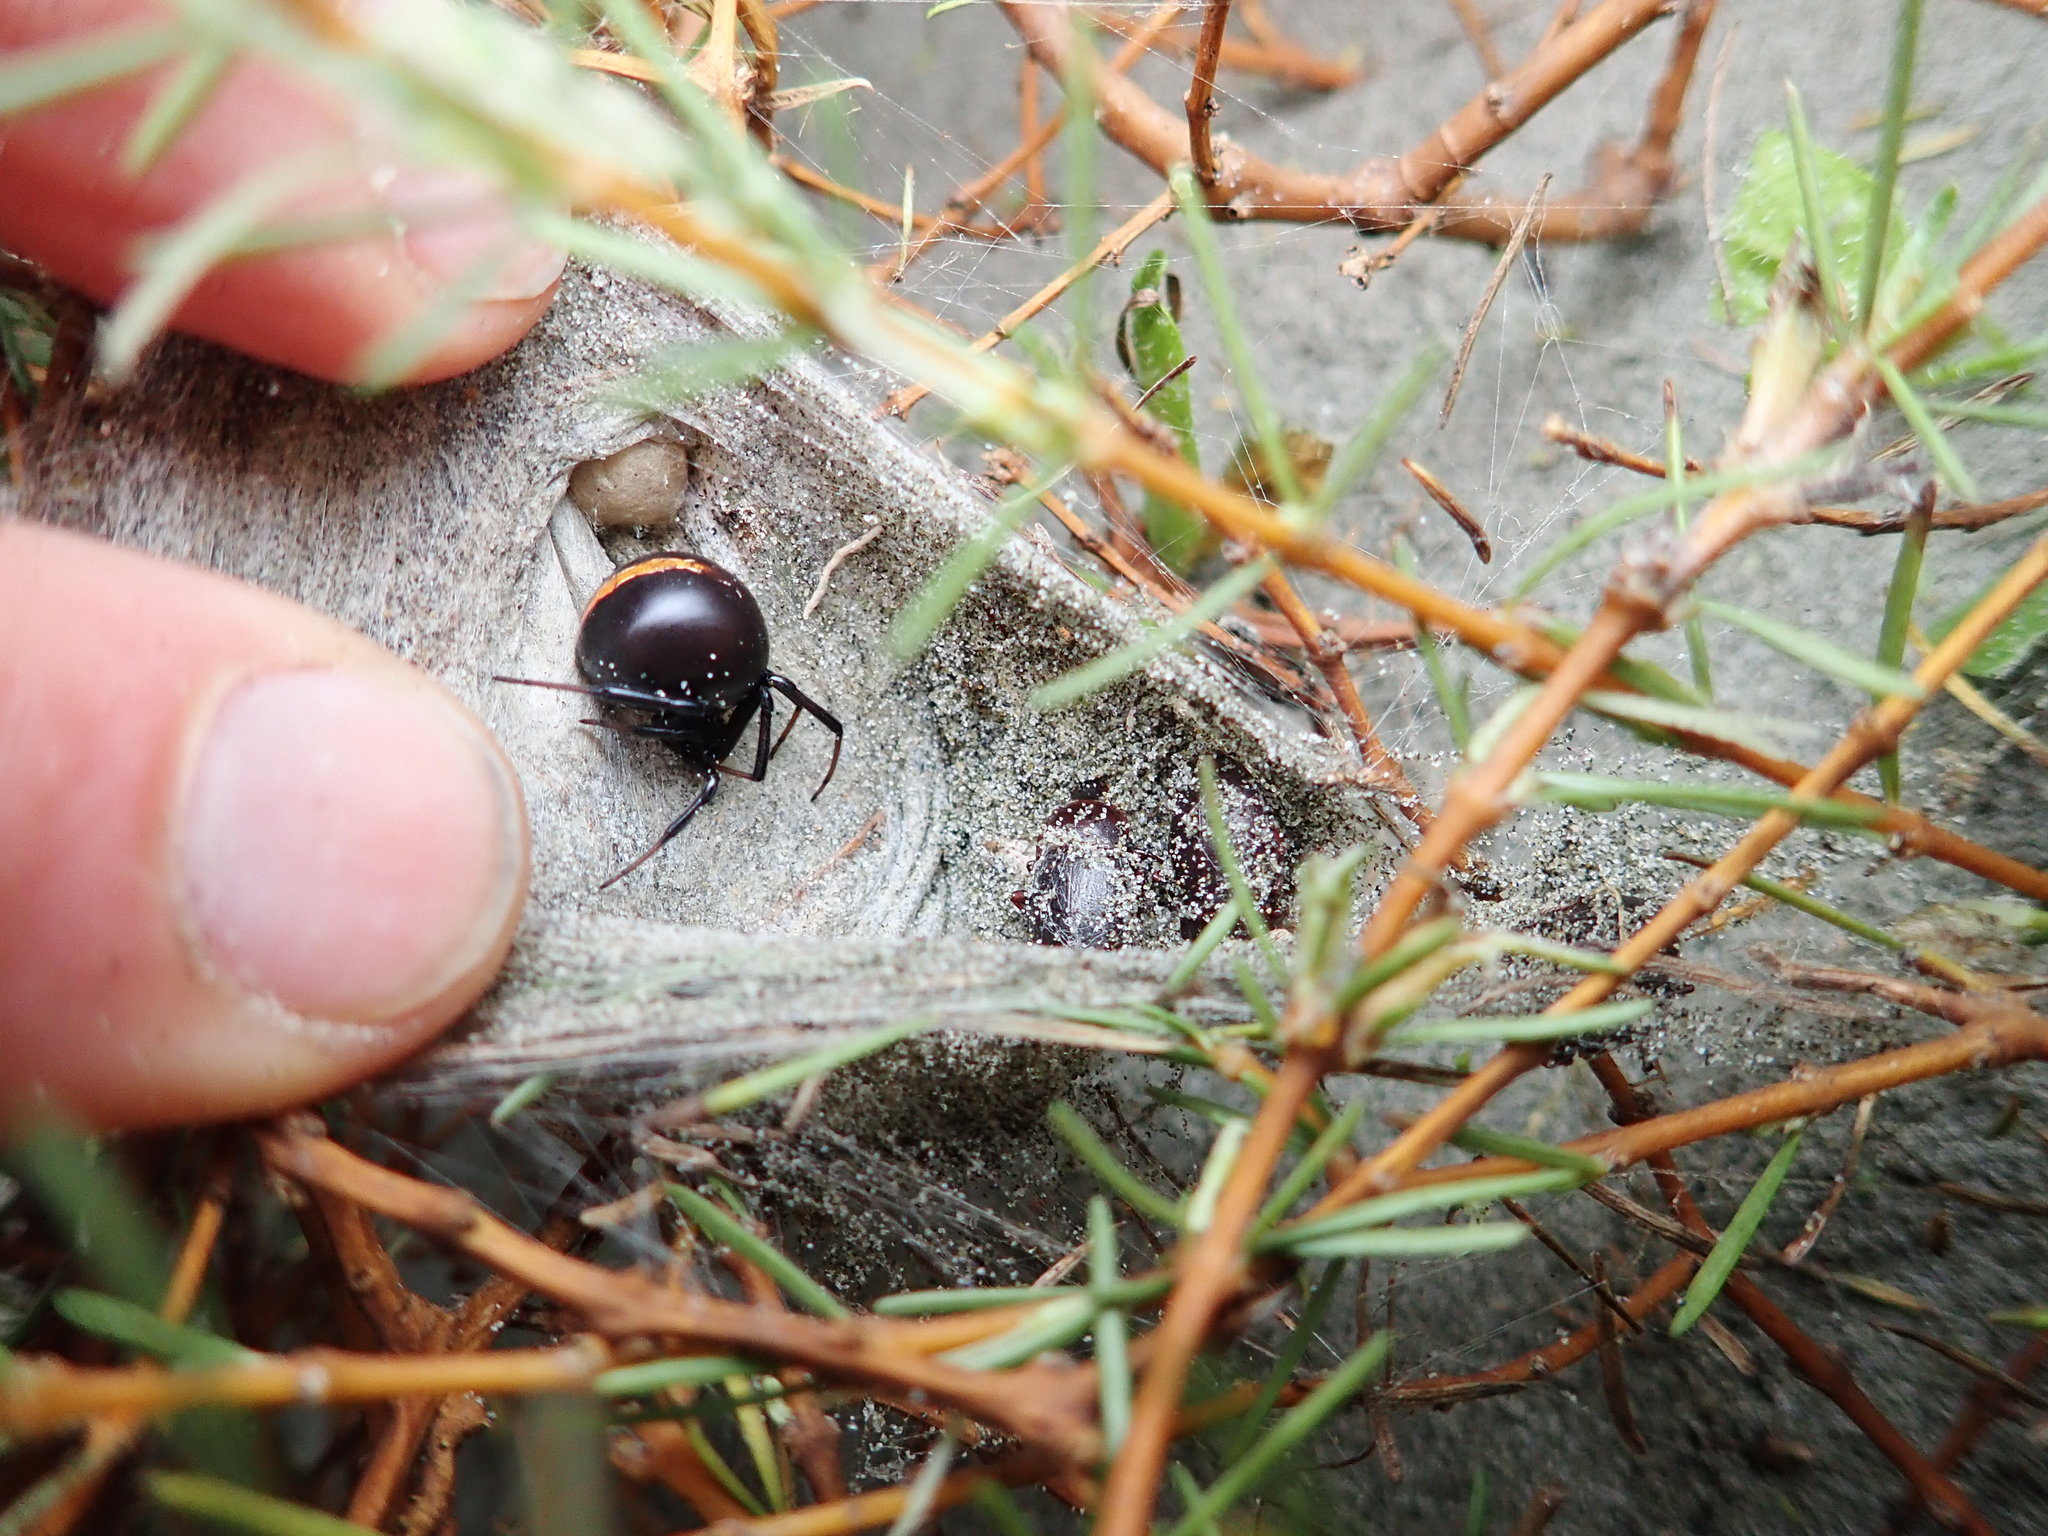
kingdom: Animalia
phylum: Arthropoda
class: Arachnida
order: Araneae
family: Theridiidae
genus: Latrodectus
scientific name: Latrodectus katipo
